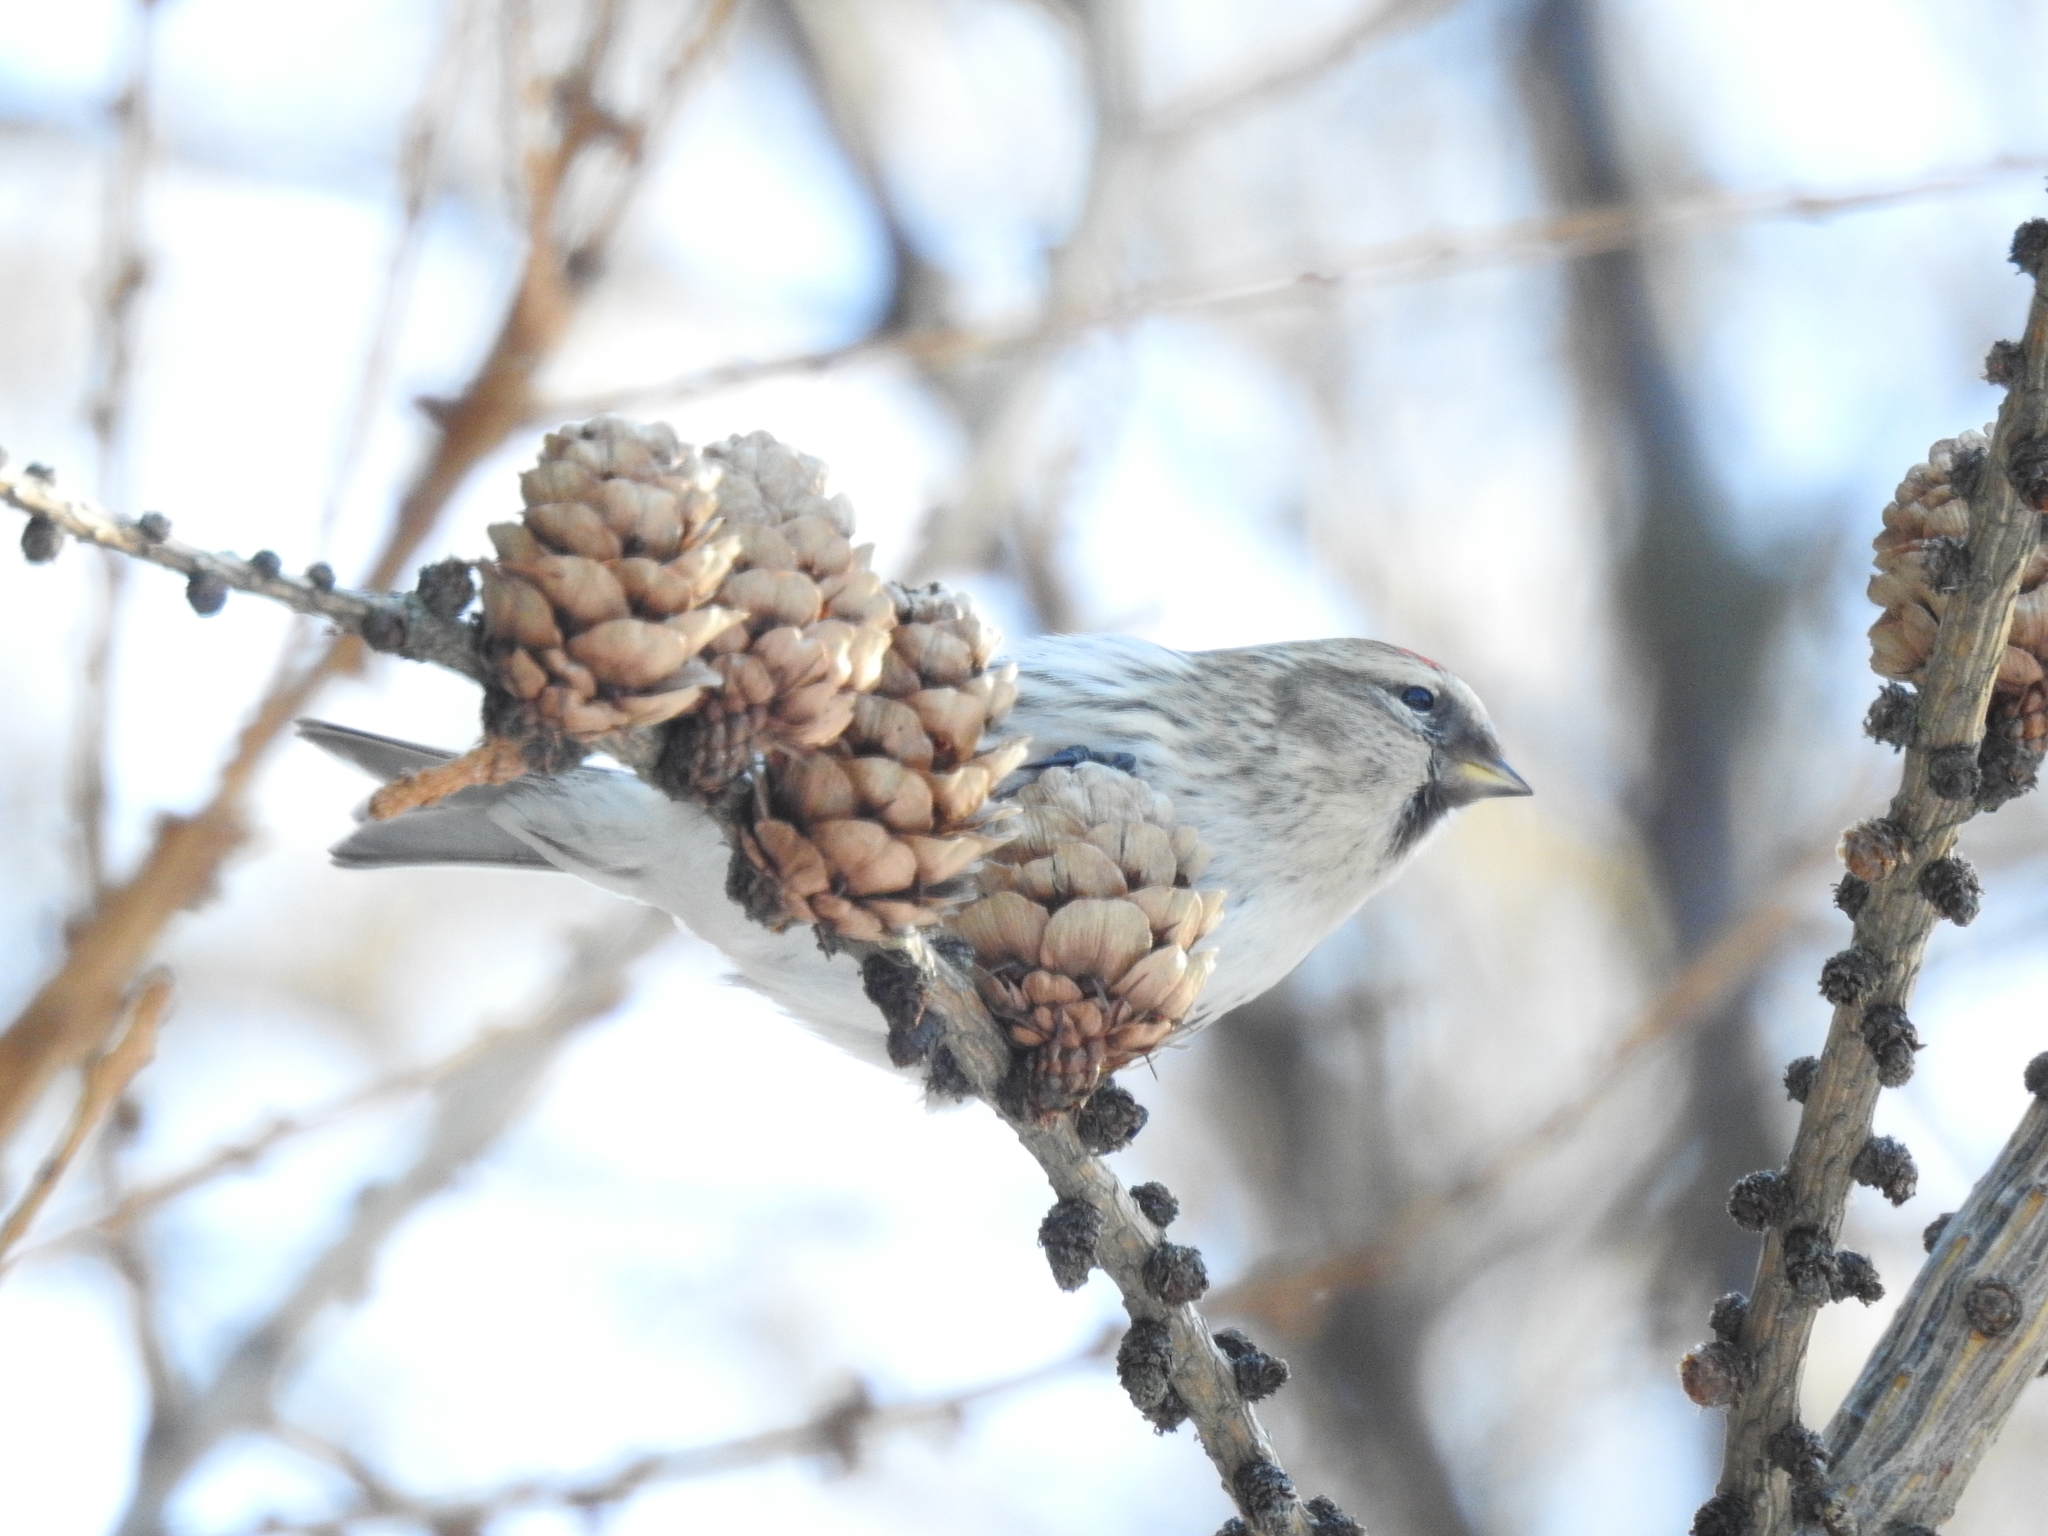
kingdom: Animalia
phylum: Chordata
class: Aves
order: Passeriformes
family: Fringillidae
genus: Acanthis
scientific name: Acanthis flammea
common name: Common redpoll
